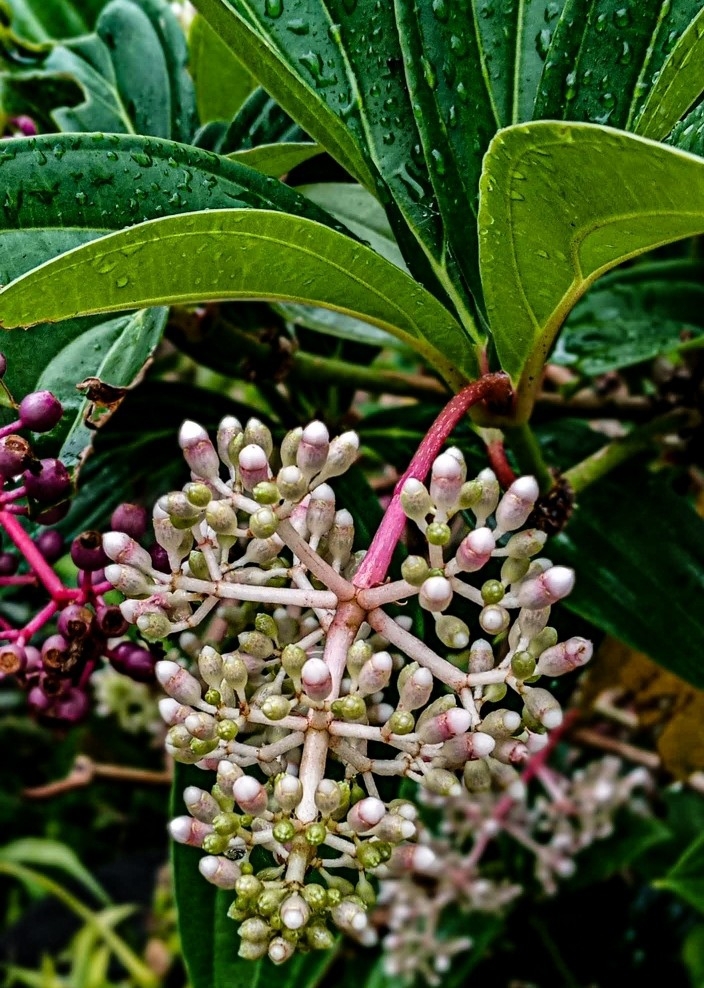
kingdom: Plantae
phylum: Tracheophyta
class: Magnoliopsida
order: Myrtales
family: Melastomataceae
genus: Medinilla
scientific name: Medinilla pendula
